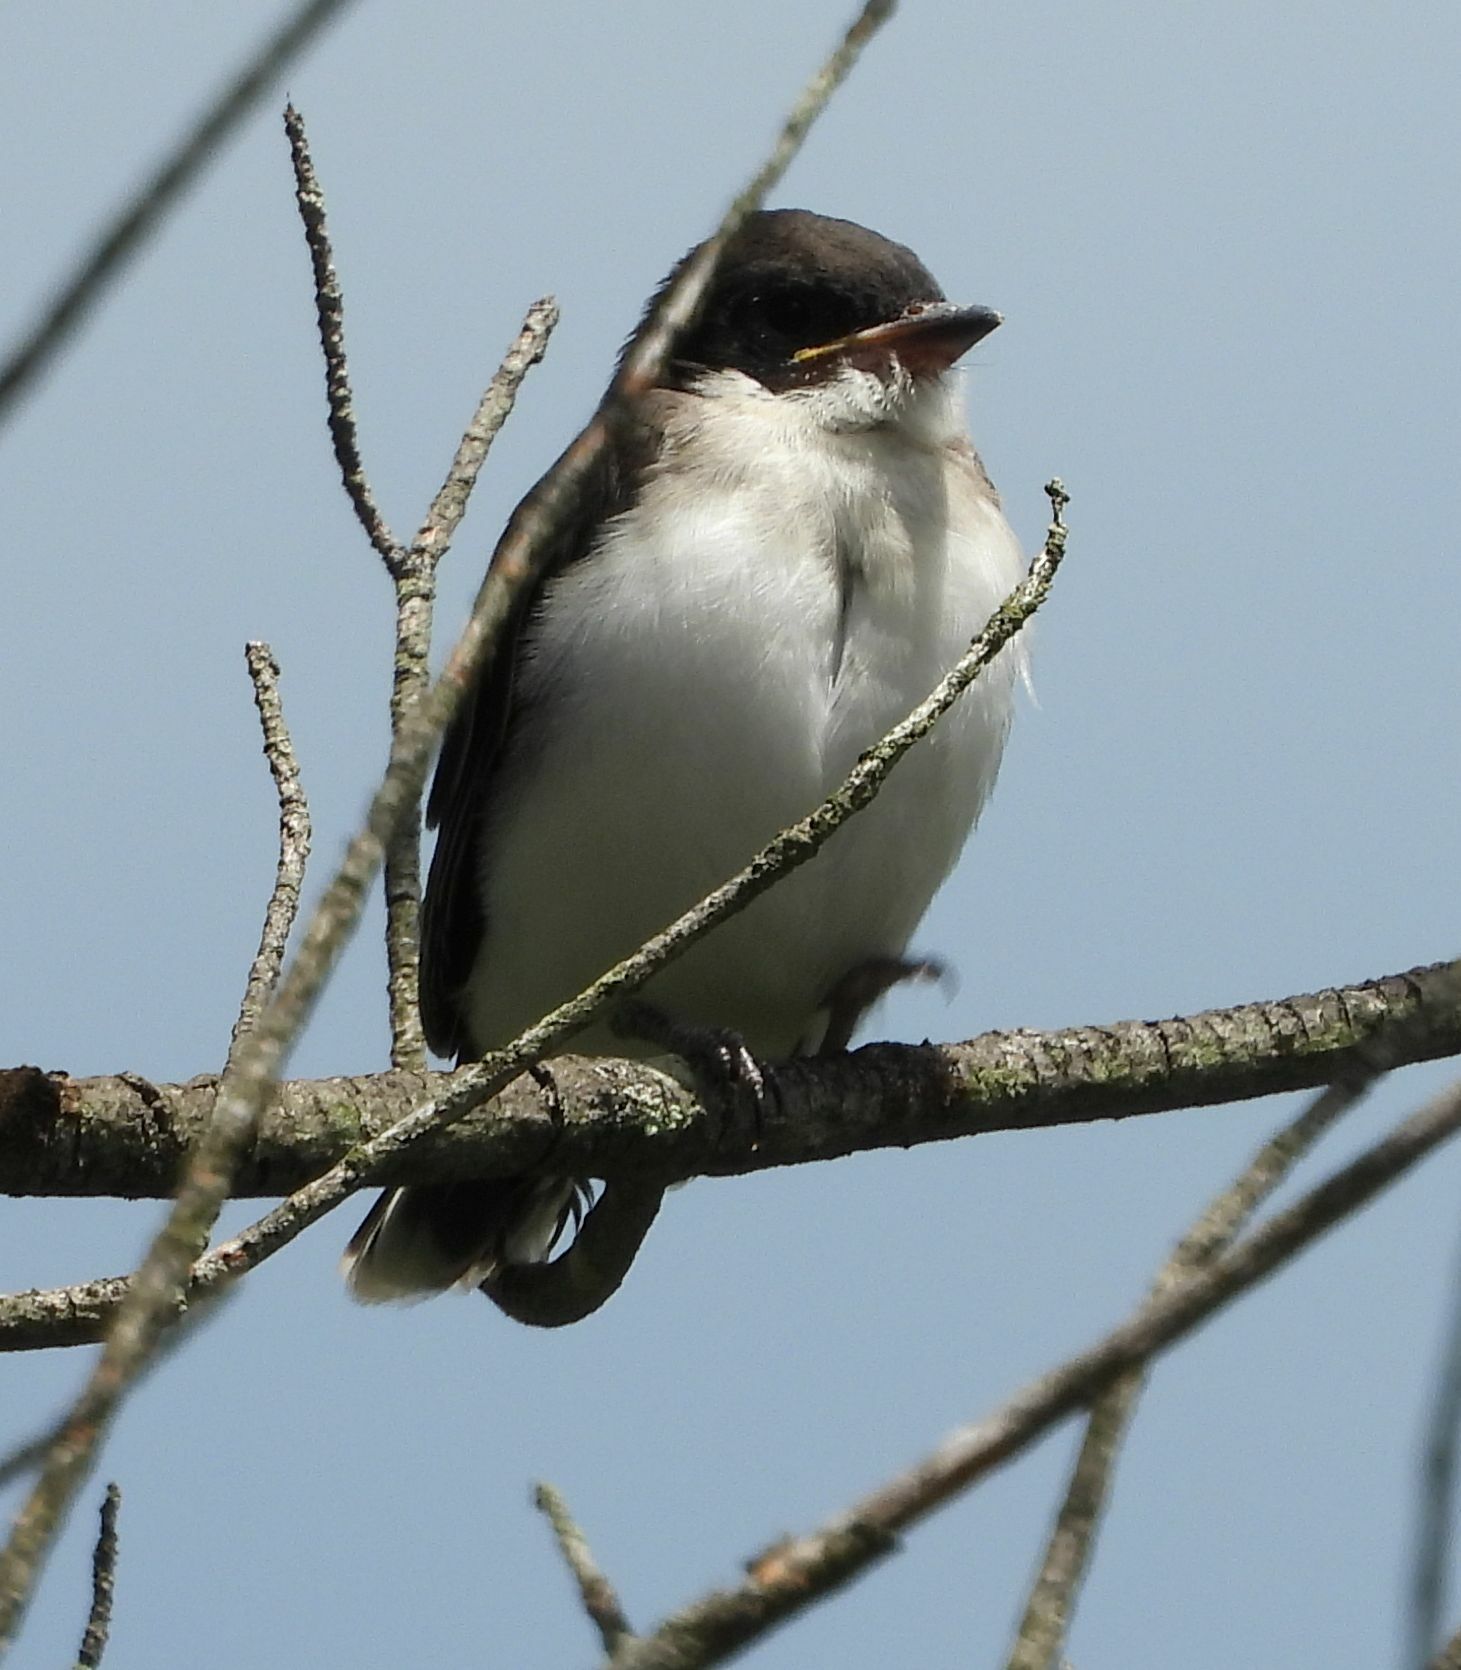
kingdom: Animalia
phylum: Chordata
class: Aves
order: Passeriformes
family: Tyrannidae
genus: Tyrannus
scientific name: Tyrannus tyrannus
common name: Eastern kingbird
